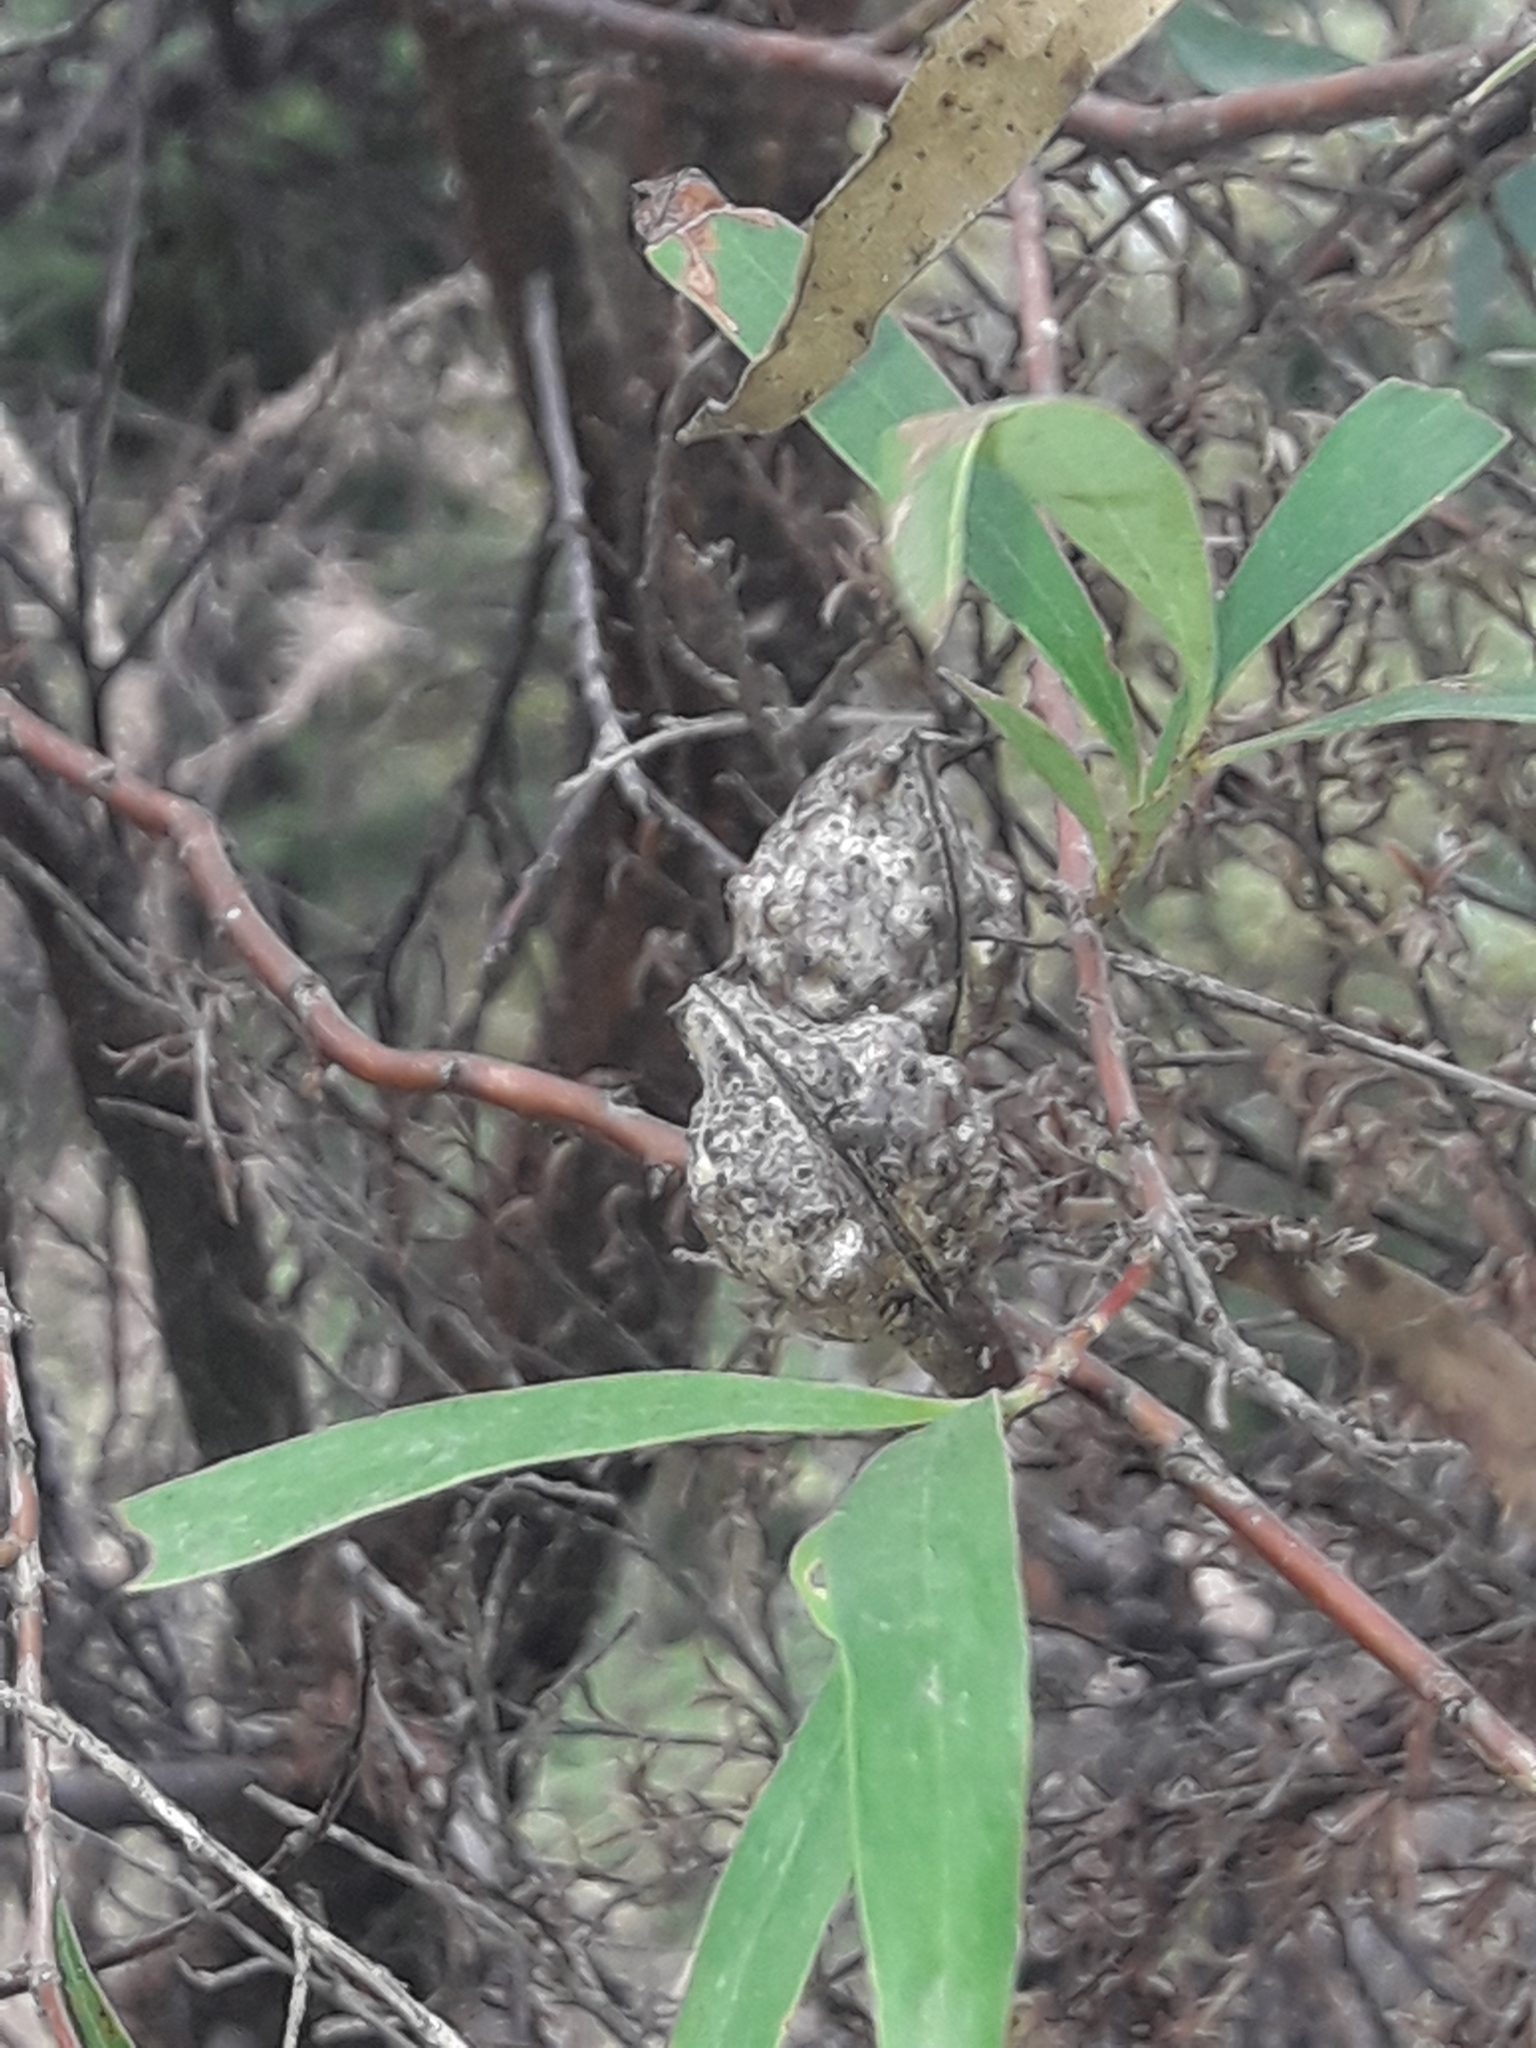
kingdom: Plantae
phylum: Tracheophyta
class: Magnoliopsida
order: Proteales
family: Proteaceae
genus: Hakea
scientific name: Hakea salicifolia
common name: Willow hakea
